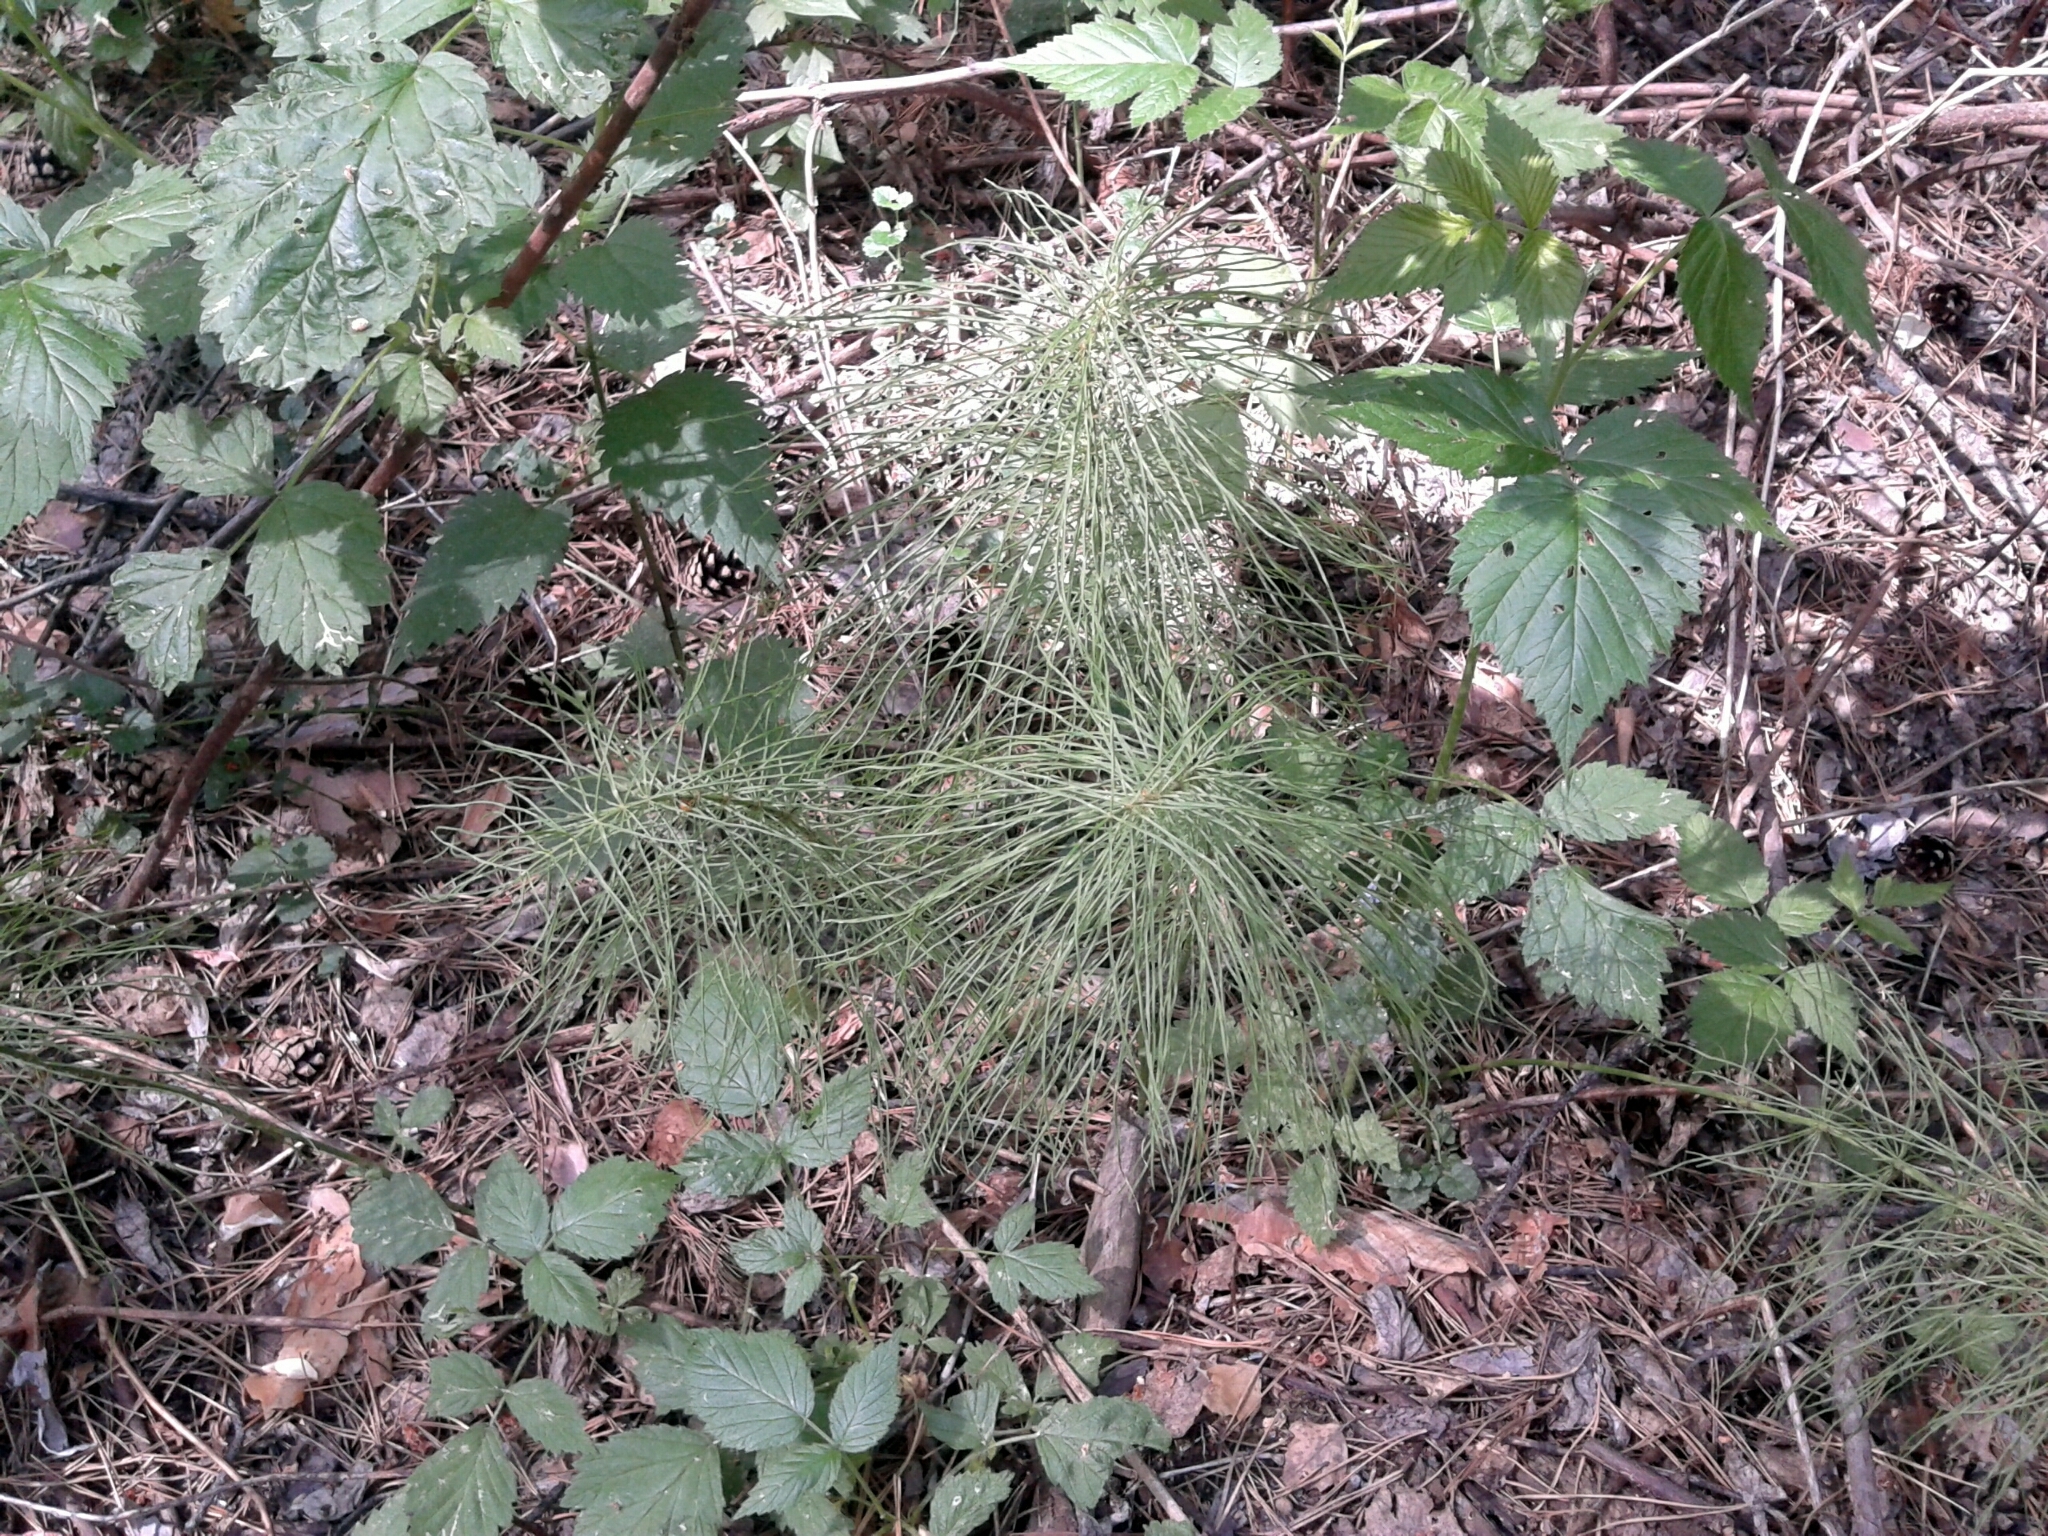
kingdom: Plantae
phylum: Tracheophyta
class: Polypodiopsida
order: Equisetales
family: Equisetaceae
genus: Equisetum
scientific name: Equisetum pratense
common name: Meadow horsetail
